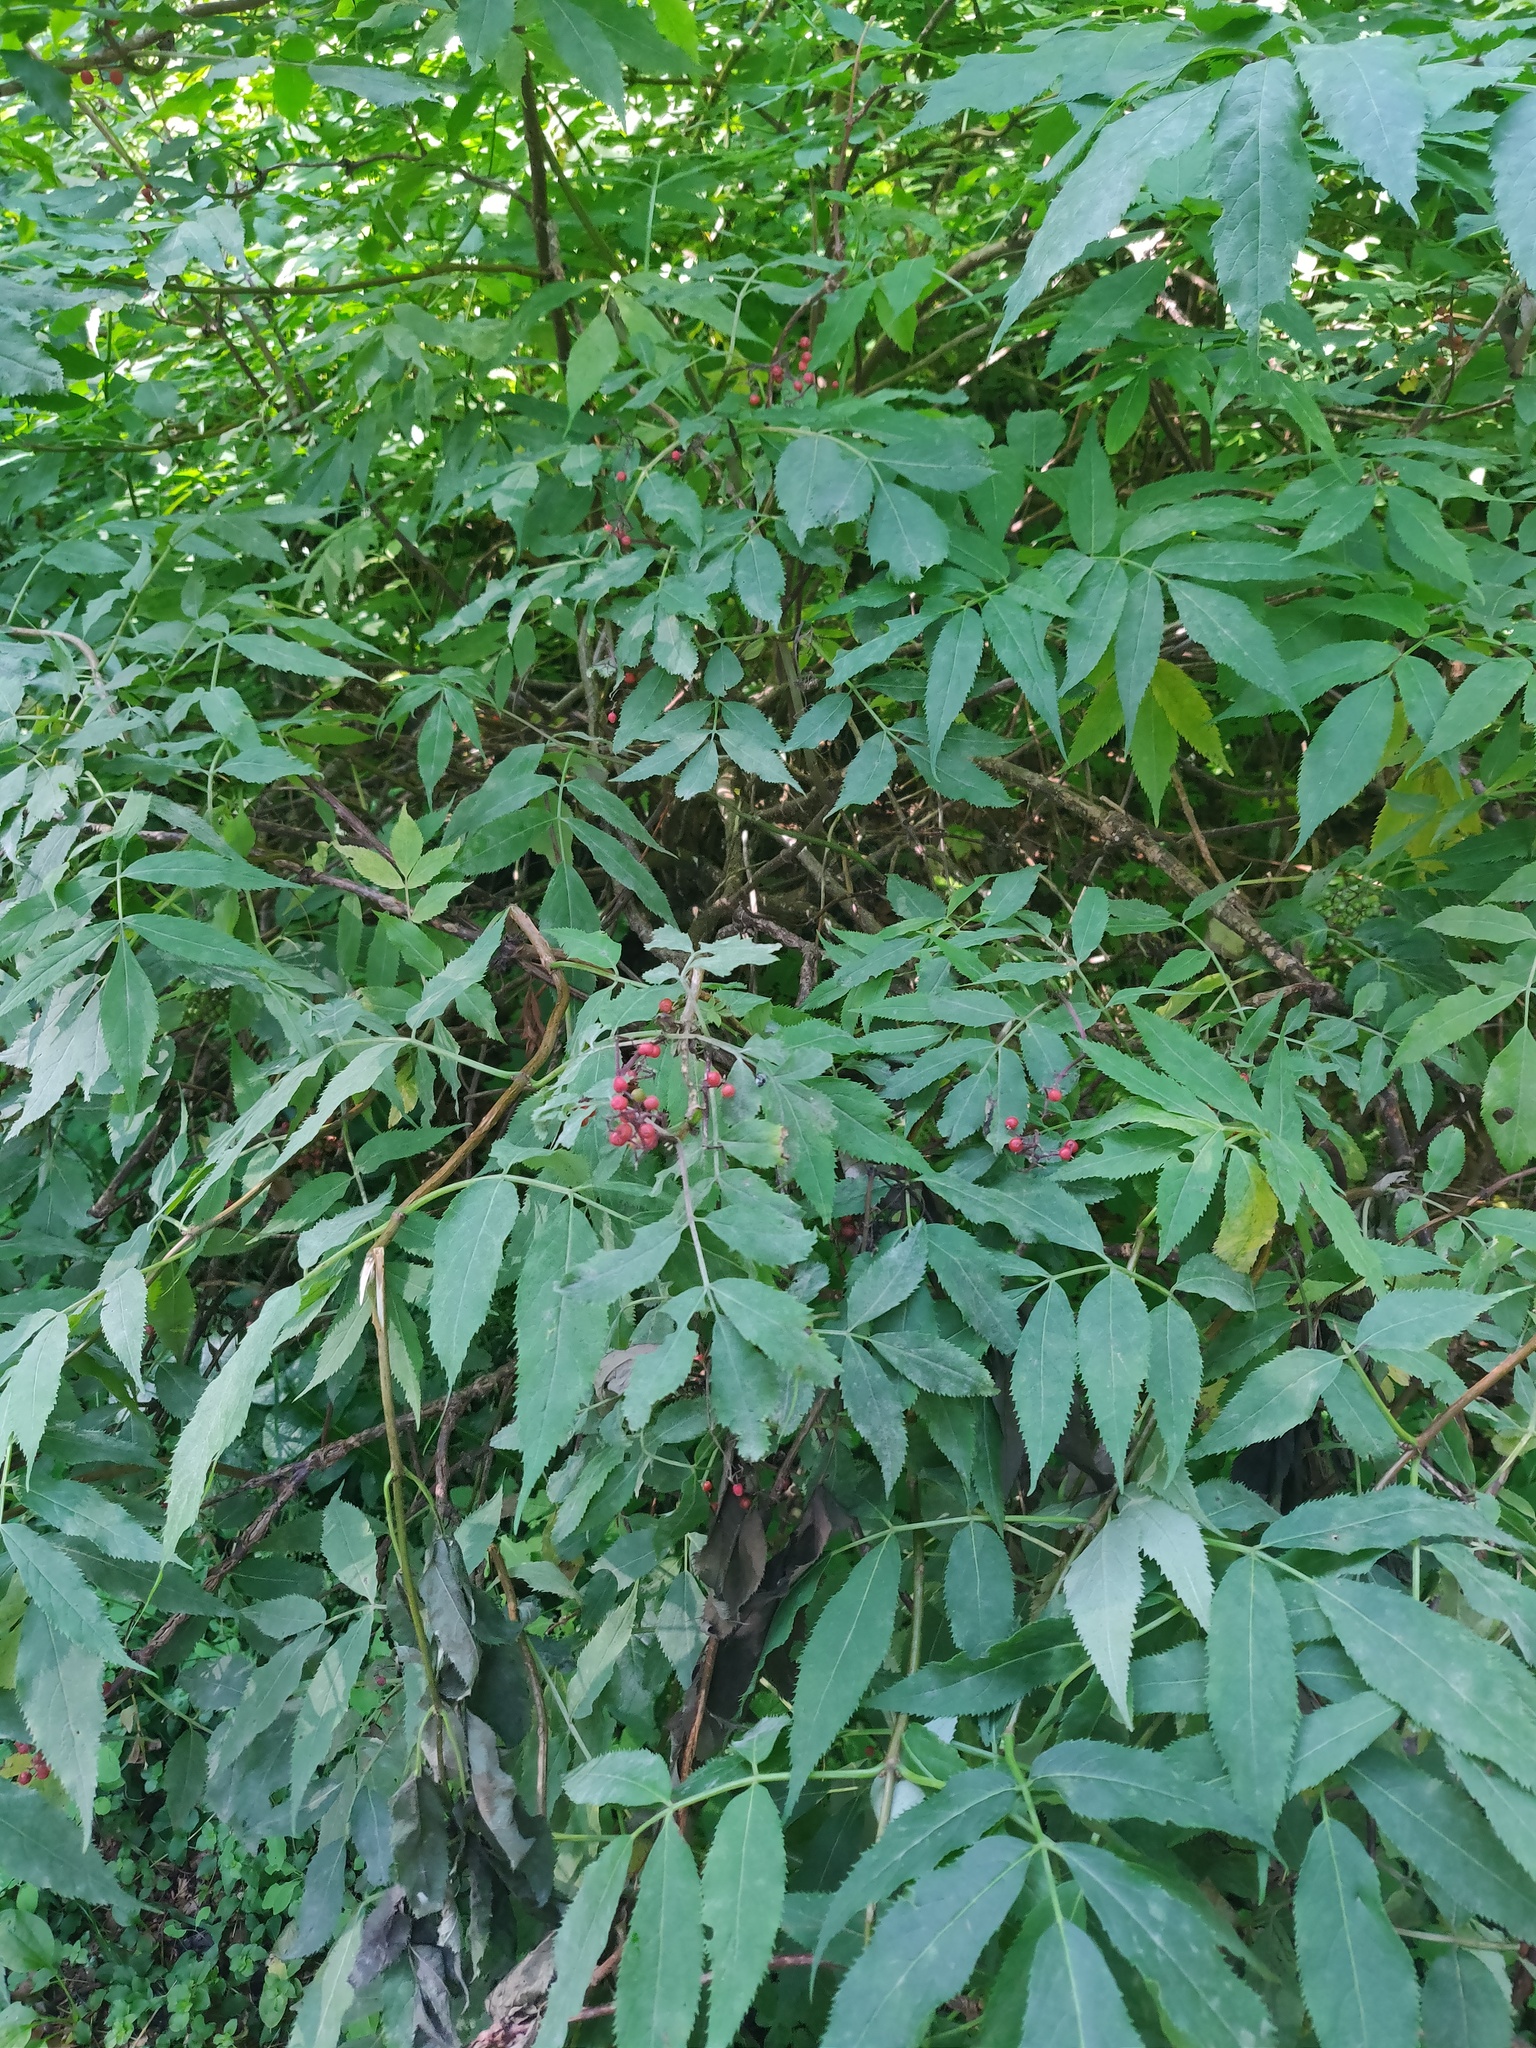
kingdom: Plantae
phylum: Tracheophyta
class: Magnoliopsida
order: Dipsacales
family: Viburnaceae
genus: Sambucus
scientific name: Sambucus racemosa
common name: Red-berried elder
